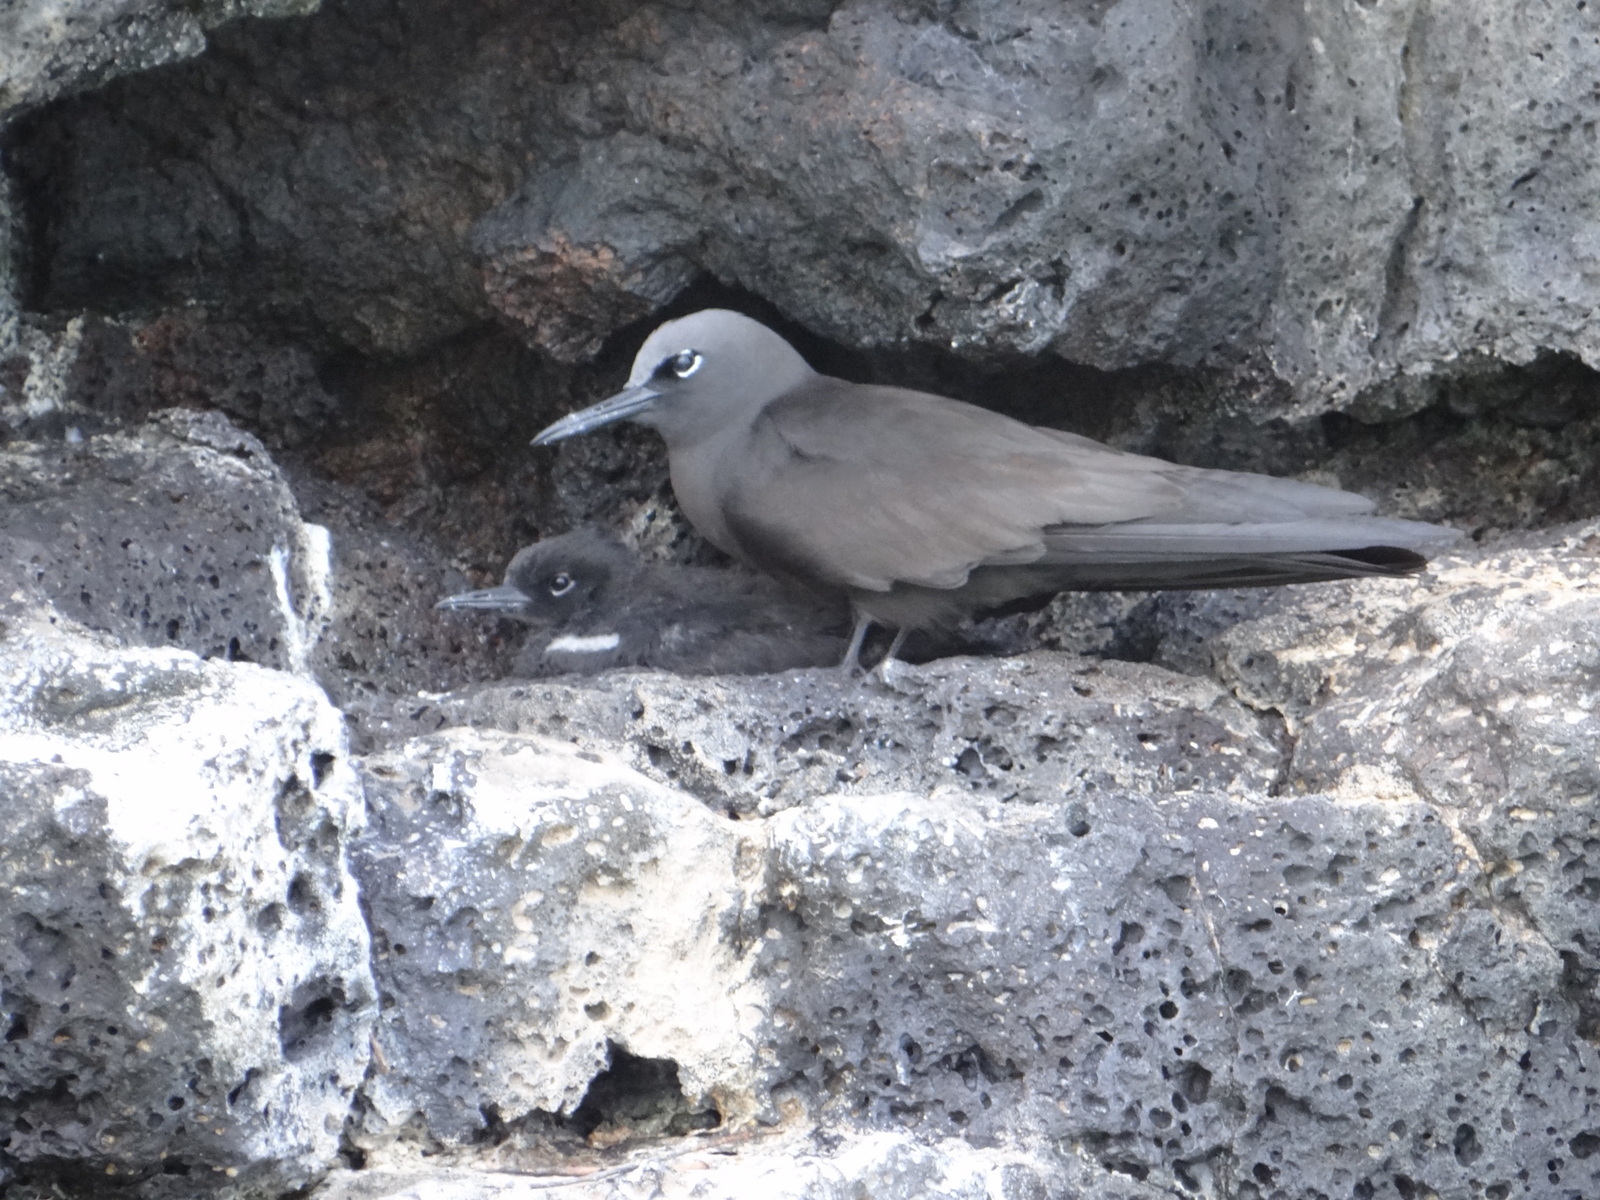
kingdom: Animalia
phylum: Chordata
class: Aves
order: Charadriiformes
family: Laridae
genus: Anous
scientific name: Anous stolidus
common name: Brown noddy
